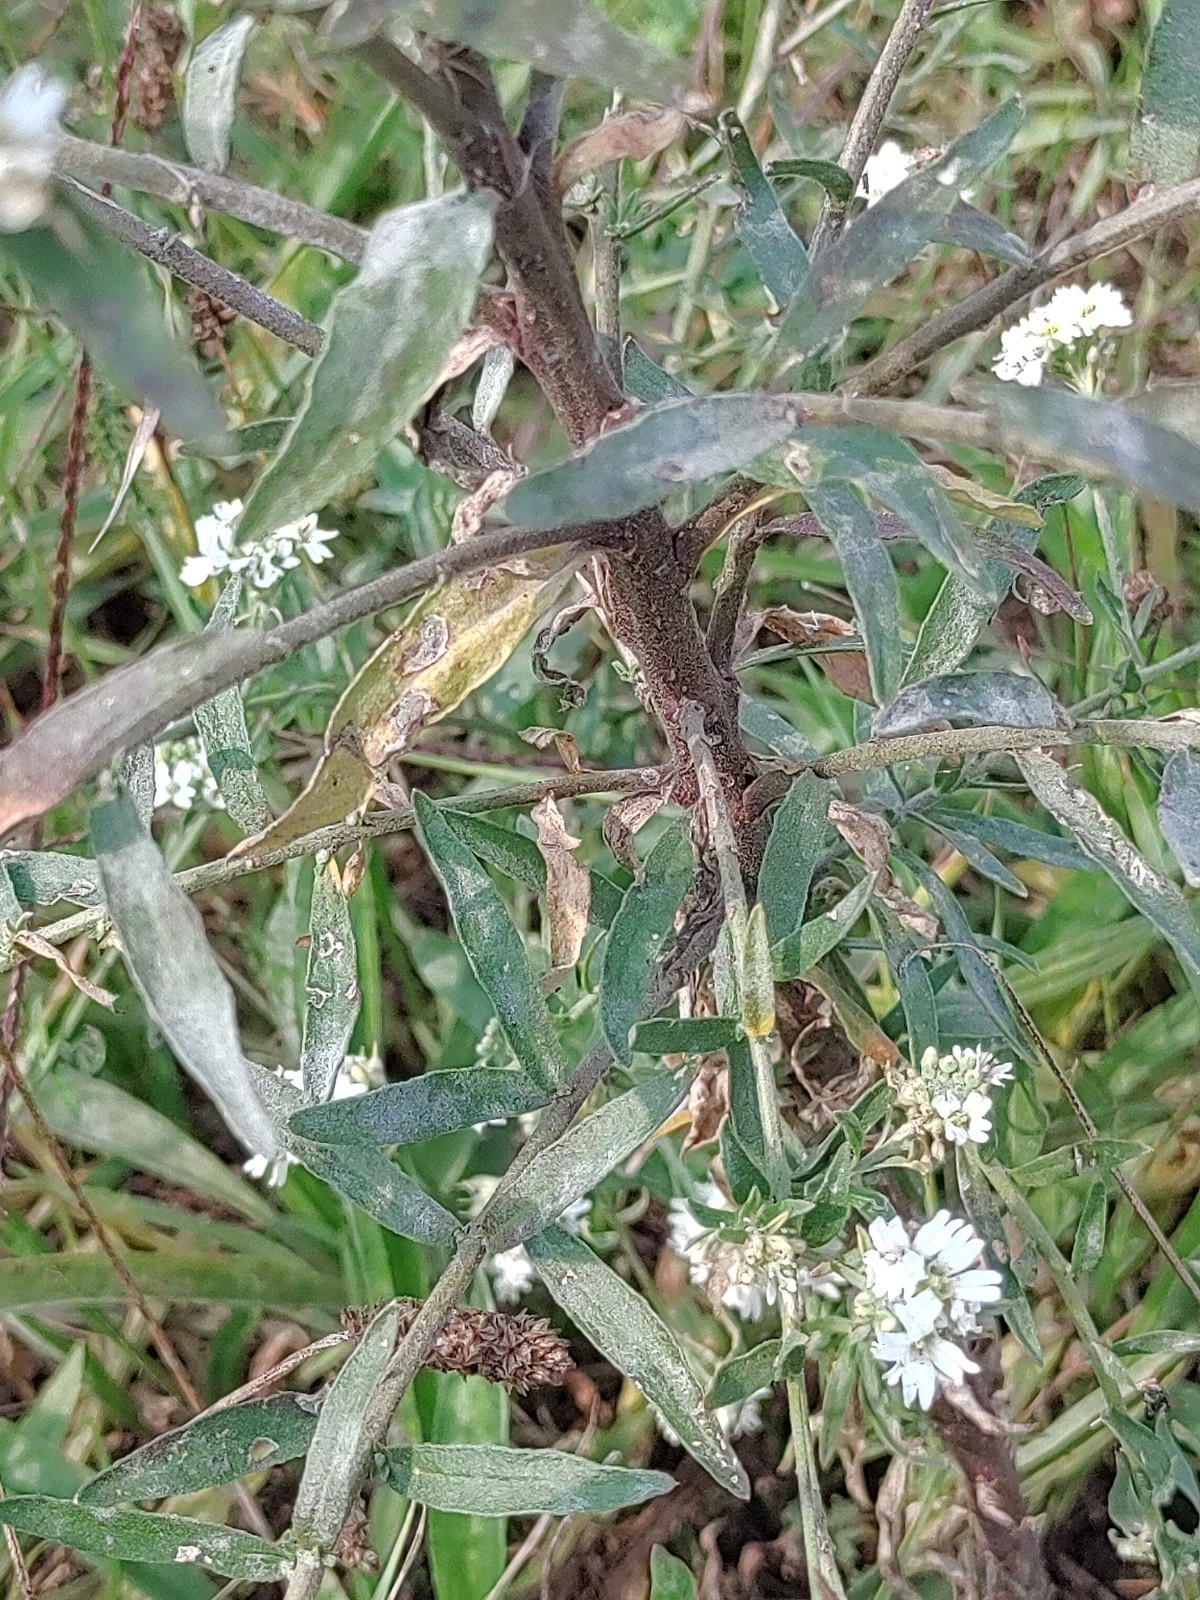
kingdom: Plantae
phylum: Tracheophyta
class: Magnoliopsida
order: Brassicales
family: Brassicaceae
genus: Berteroa
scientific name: Berteroa incana
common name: Hoary alison
